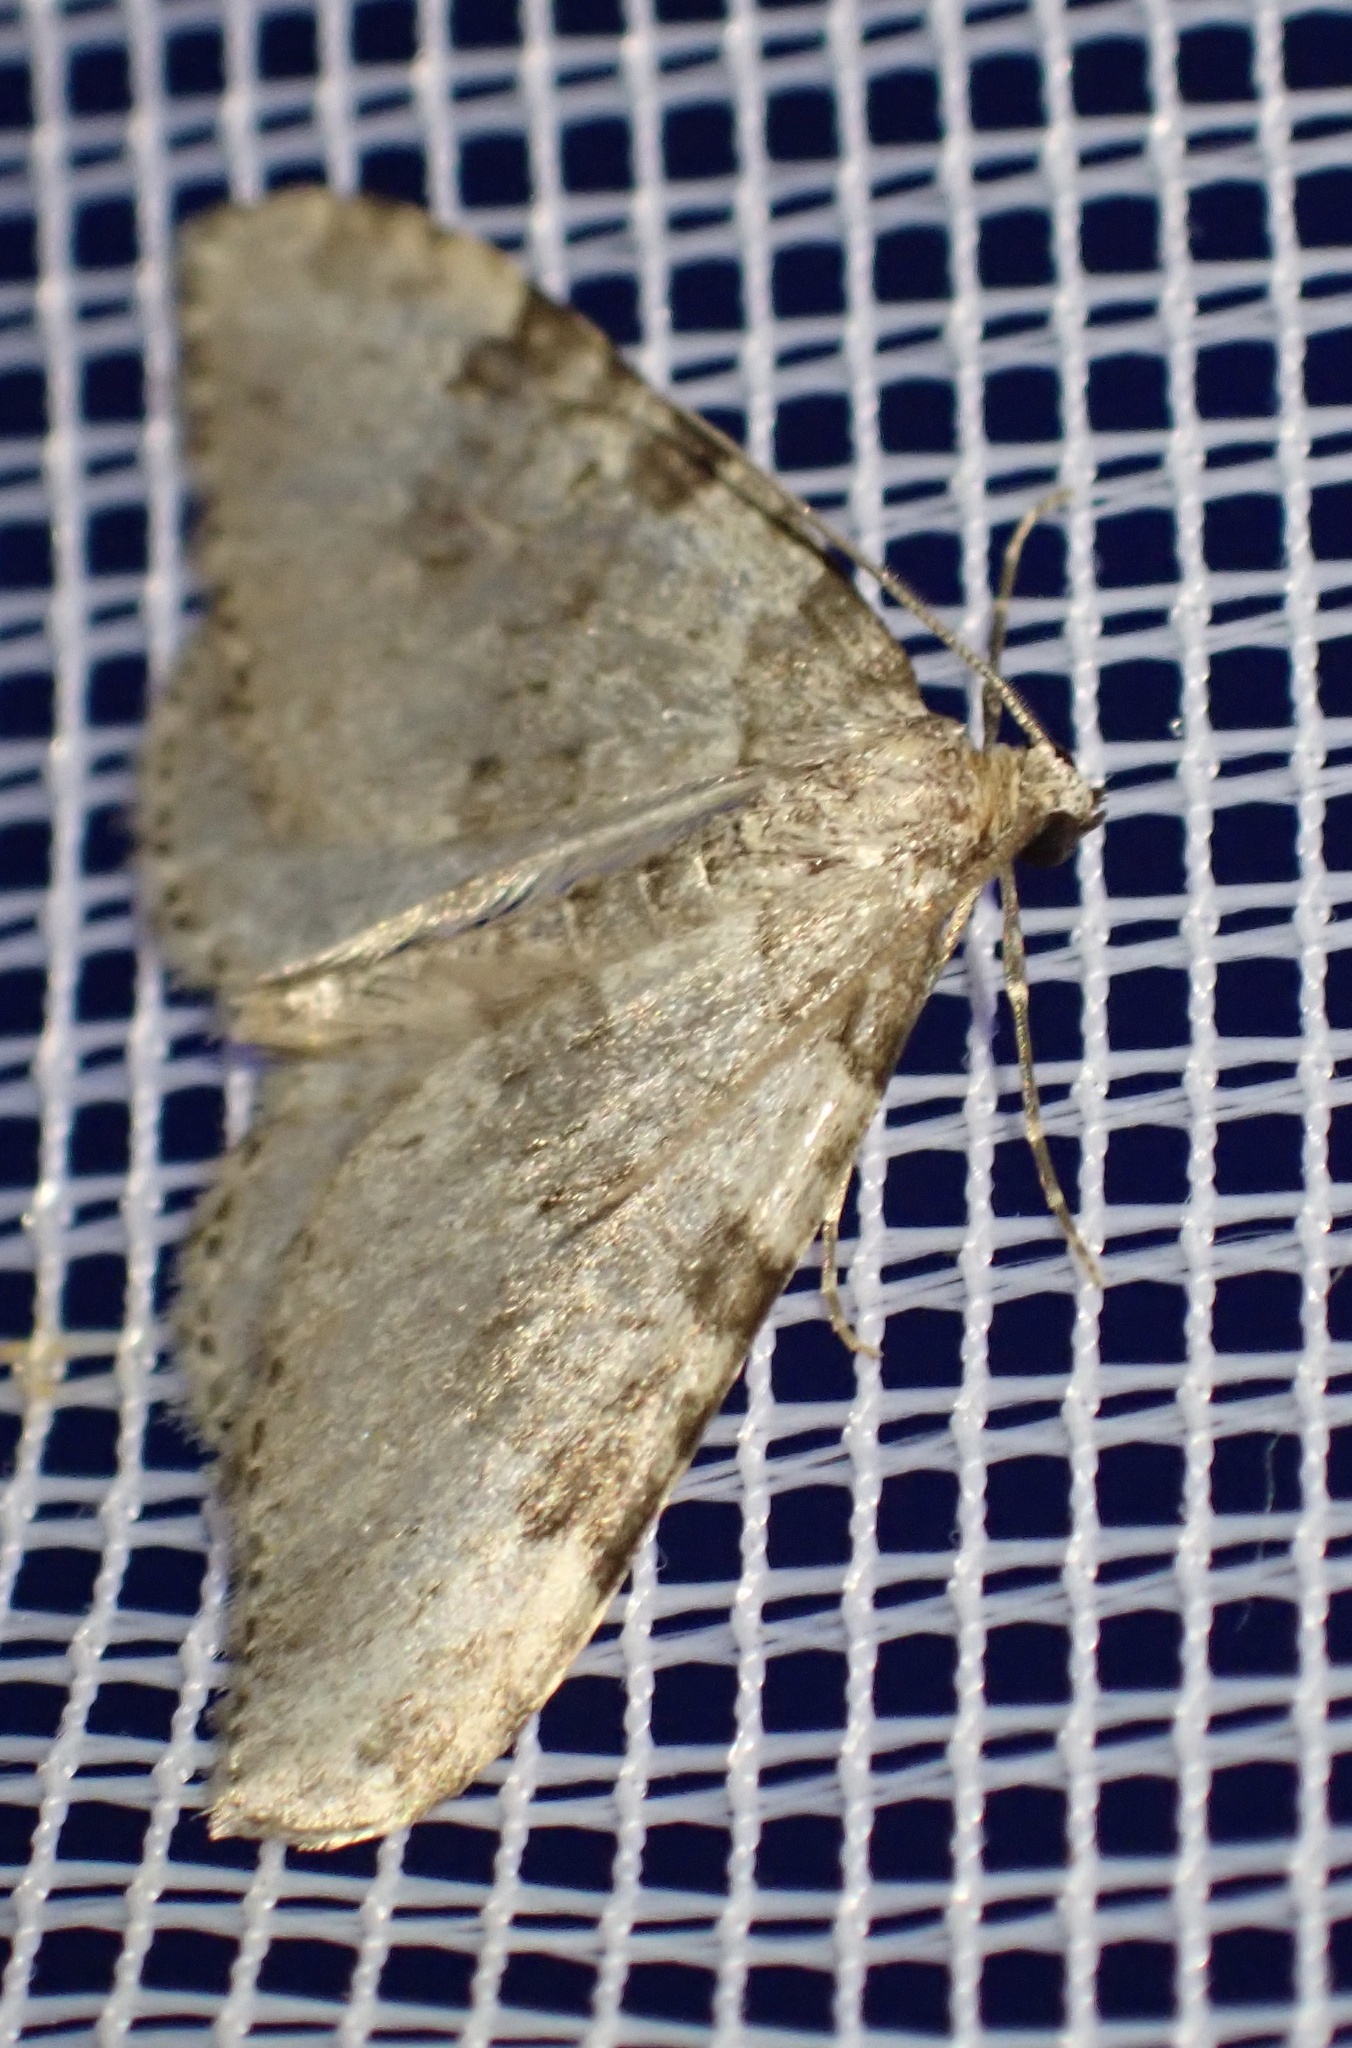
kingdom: Animalia
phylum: Arthropoda
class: Insecta
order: Lepidoptera
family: Geometridae
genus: Nebula
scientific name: Nebula ibericata
